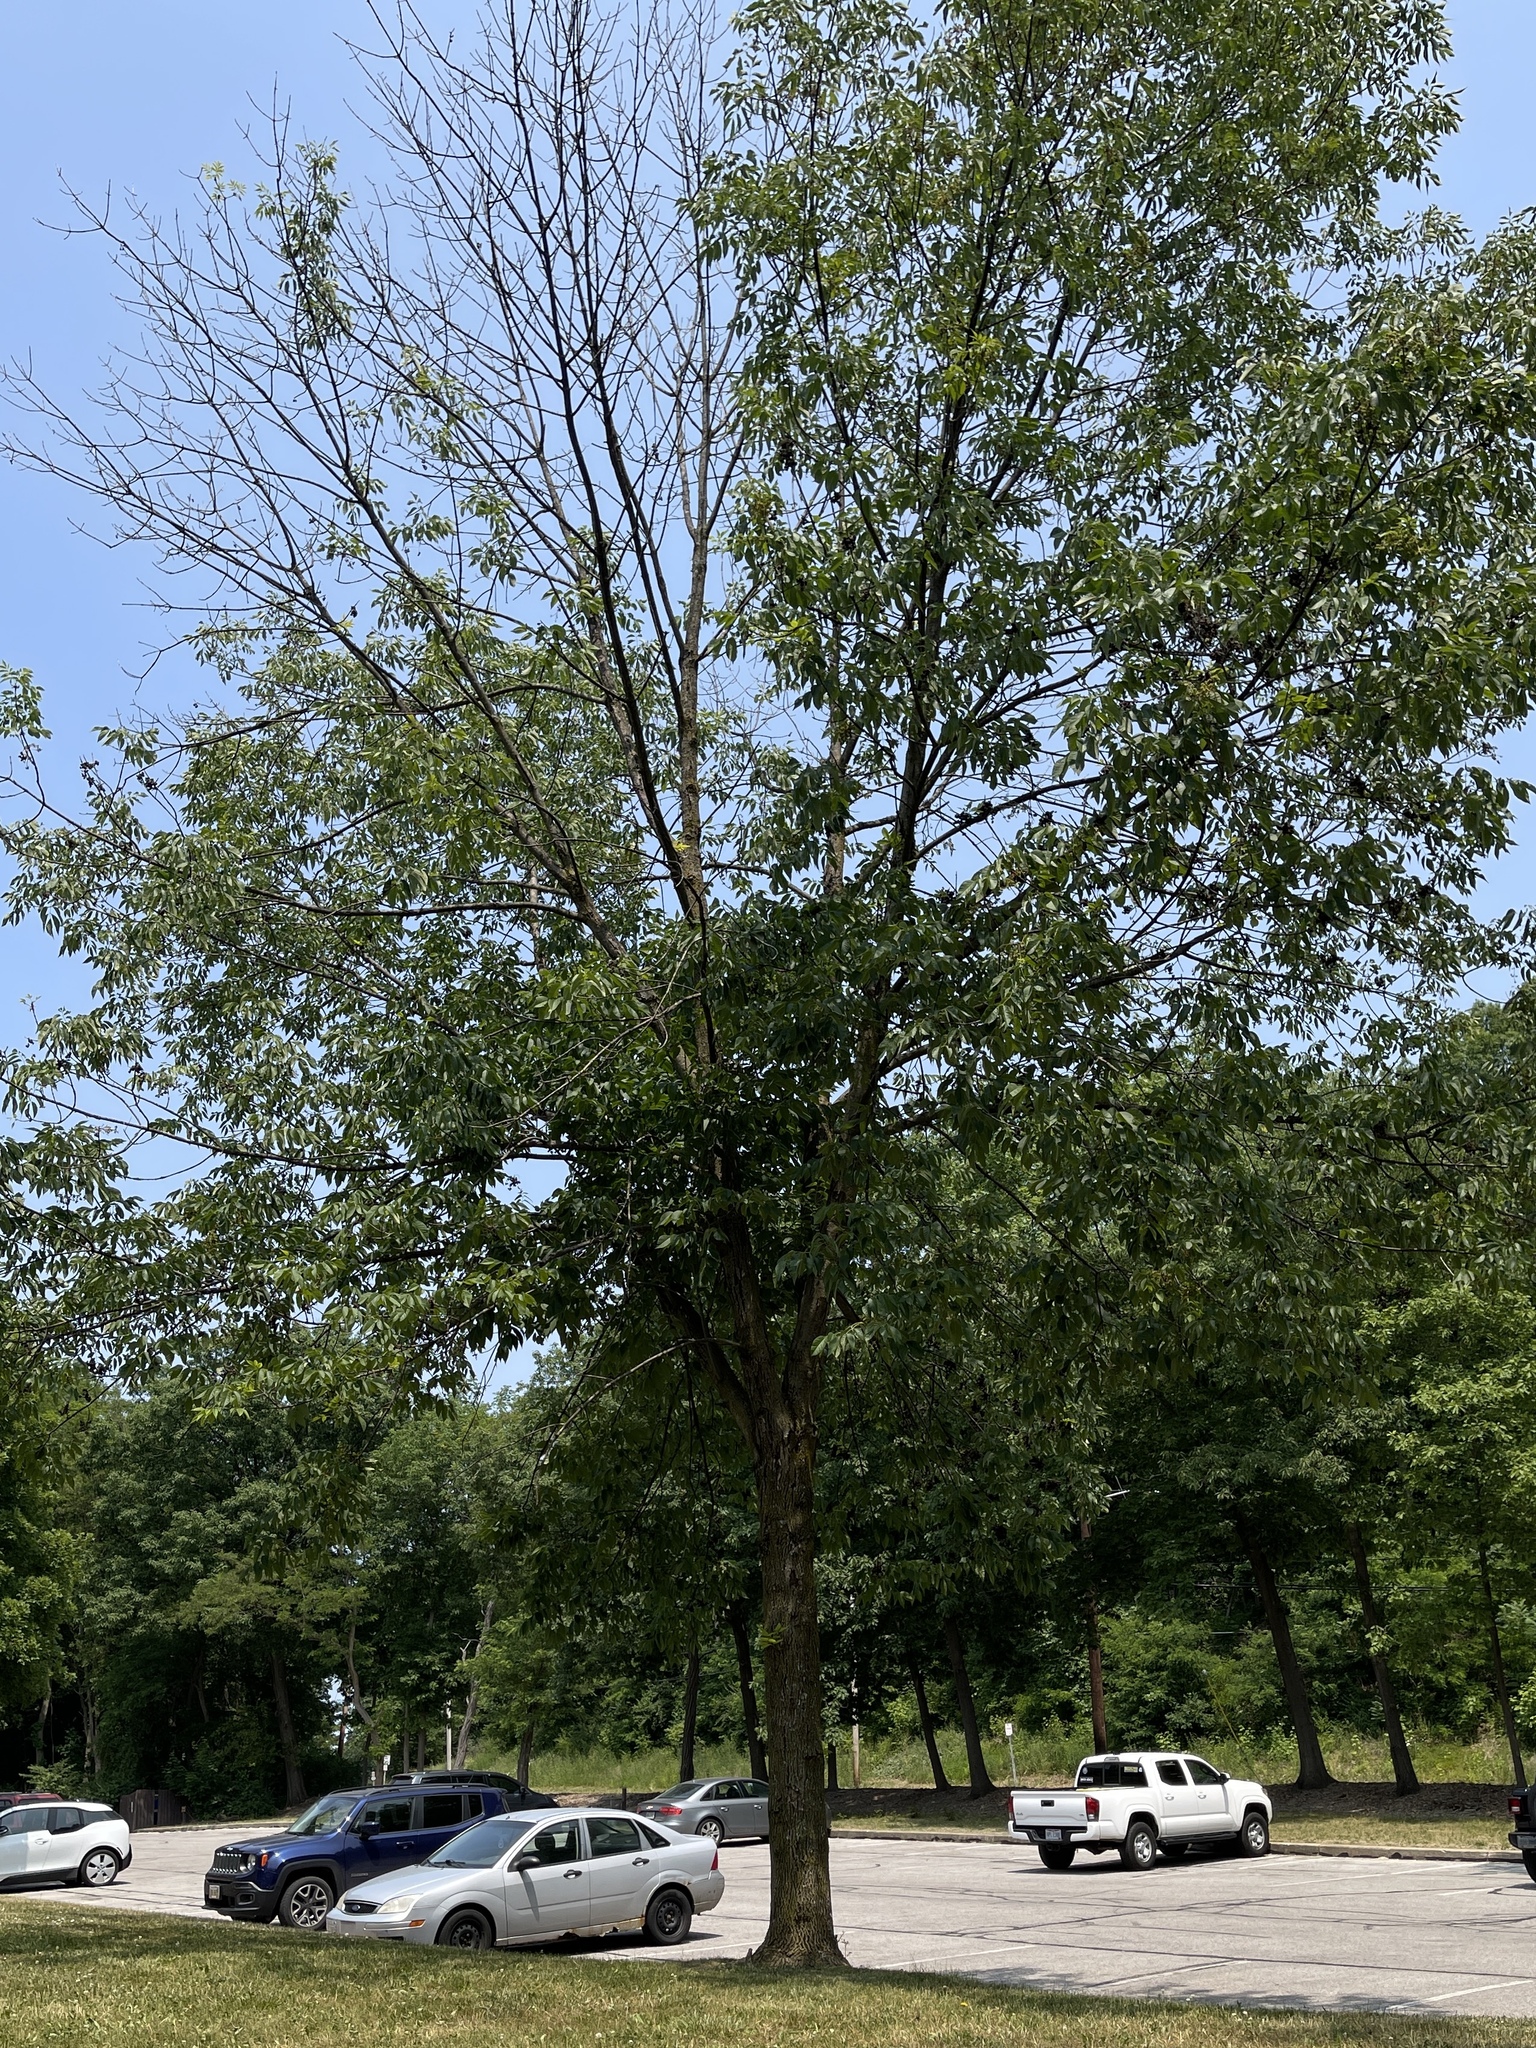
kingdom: Plantae
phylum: Tracheophyta
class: Magnoliopsida
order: Lamiales
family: Oleaceae
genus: Fraxinus
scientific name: Fraxinus pennsylvanica
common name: Green ash
